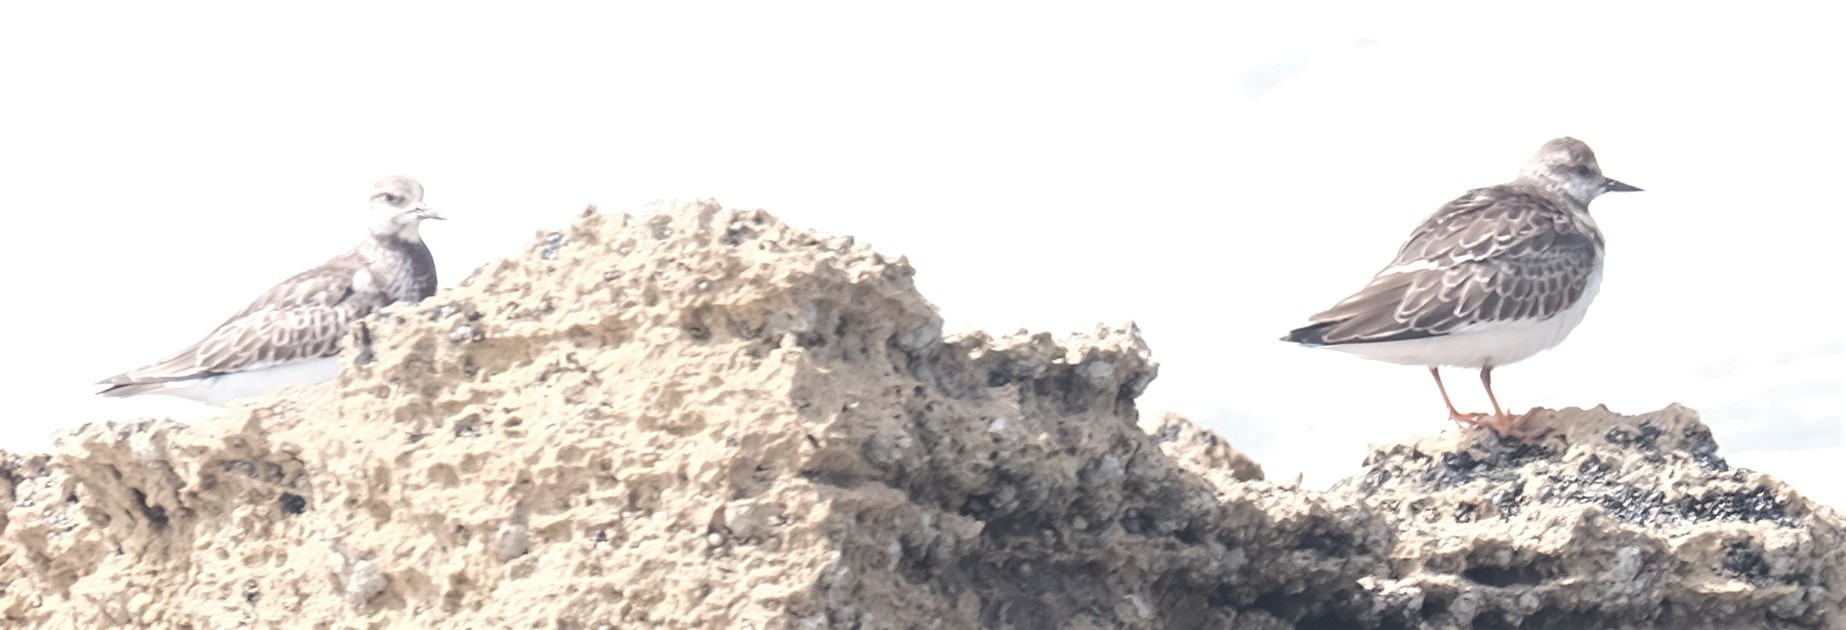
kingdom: Animalia
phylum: Chordata
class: Aves
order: Charadriiformes
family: Scolopacidae
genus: Arenaria
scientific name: Arenaria interpres
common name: Ruddy turnstone
